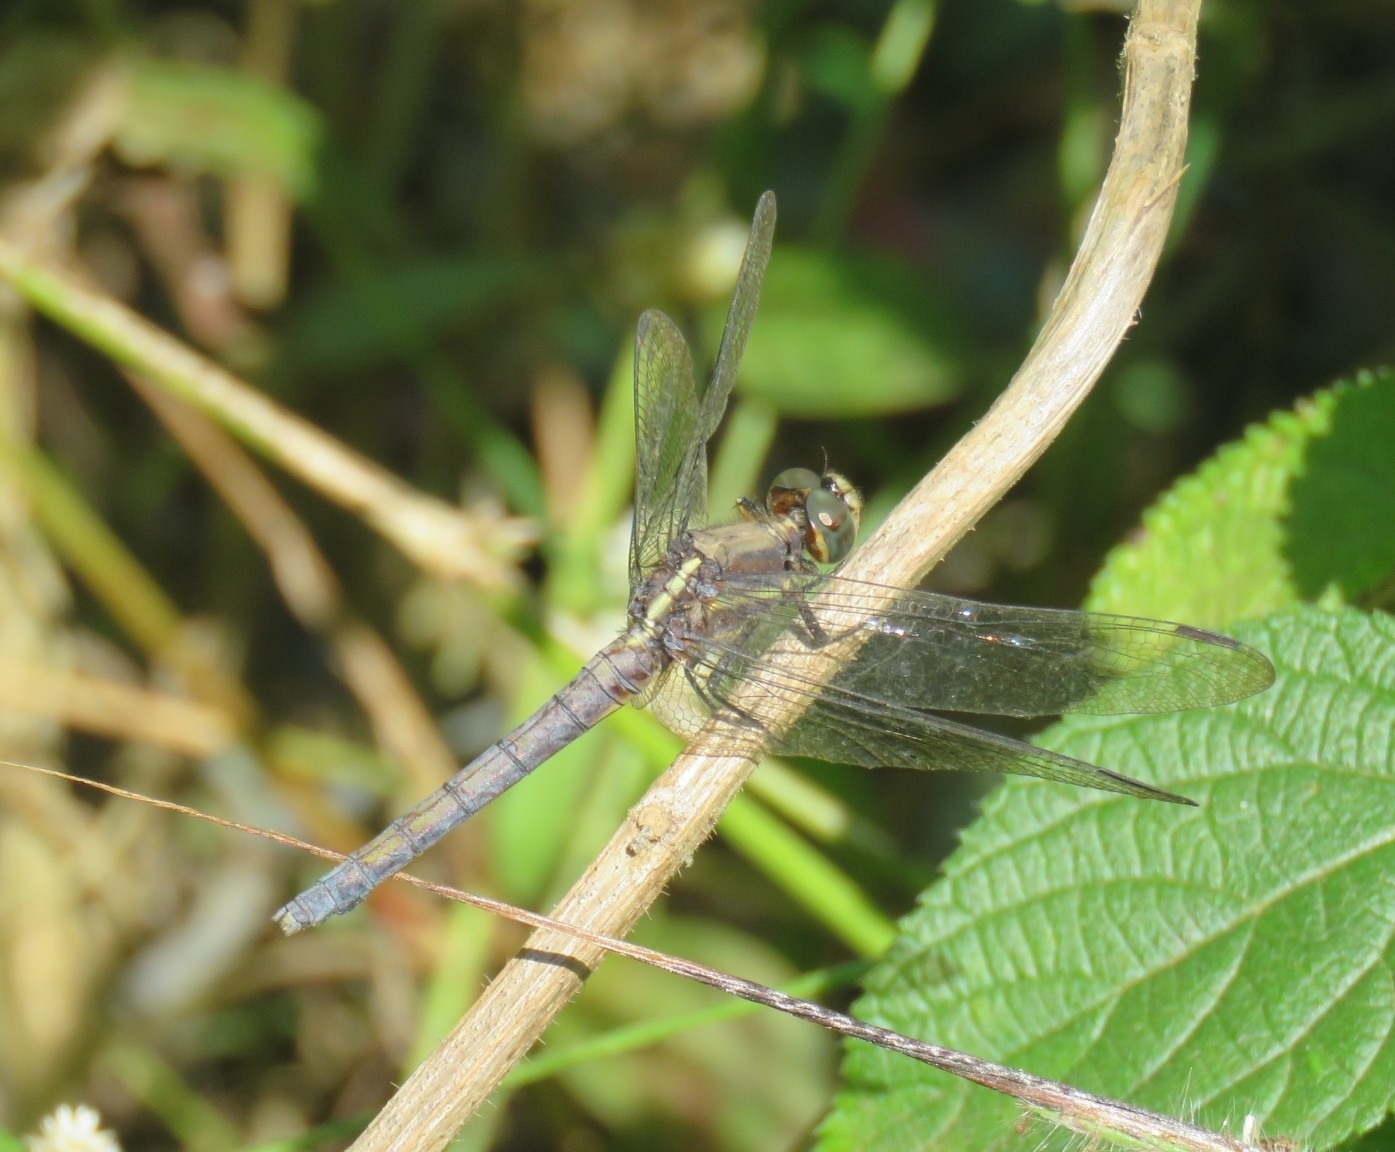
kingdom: Animalia
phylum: Arthropoda
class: Insecta
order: Odonata
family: Libellulidae
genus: Orthetrum
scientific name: Orthetrum taeniolatum
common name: Small skimmer
